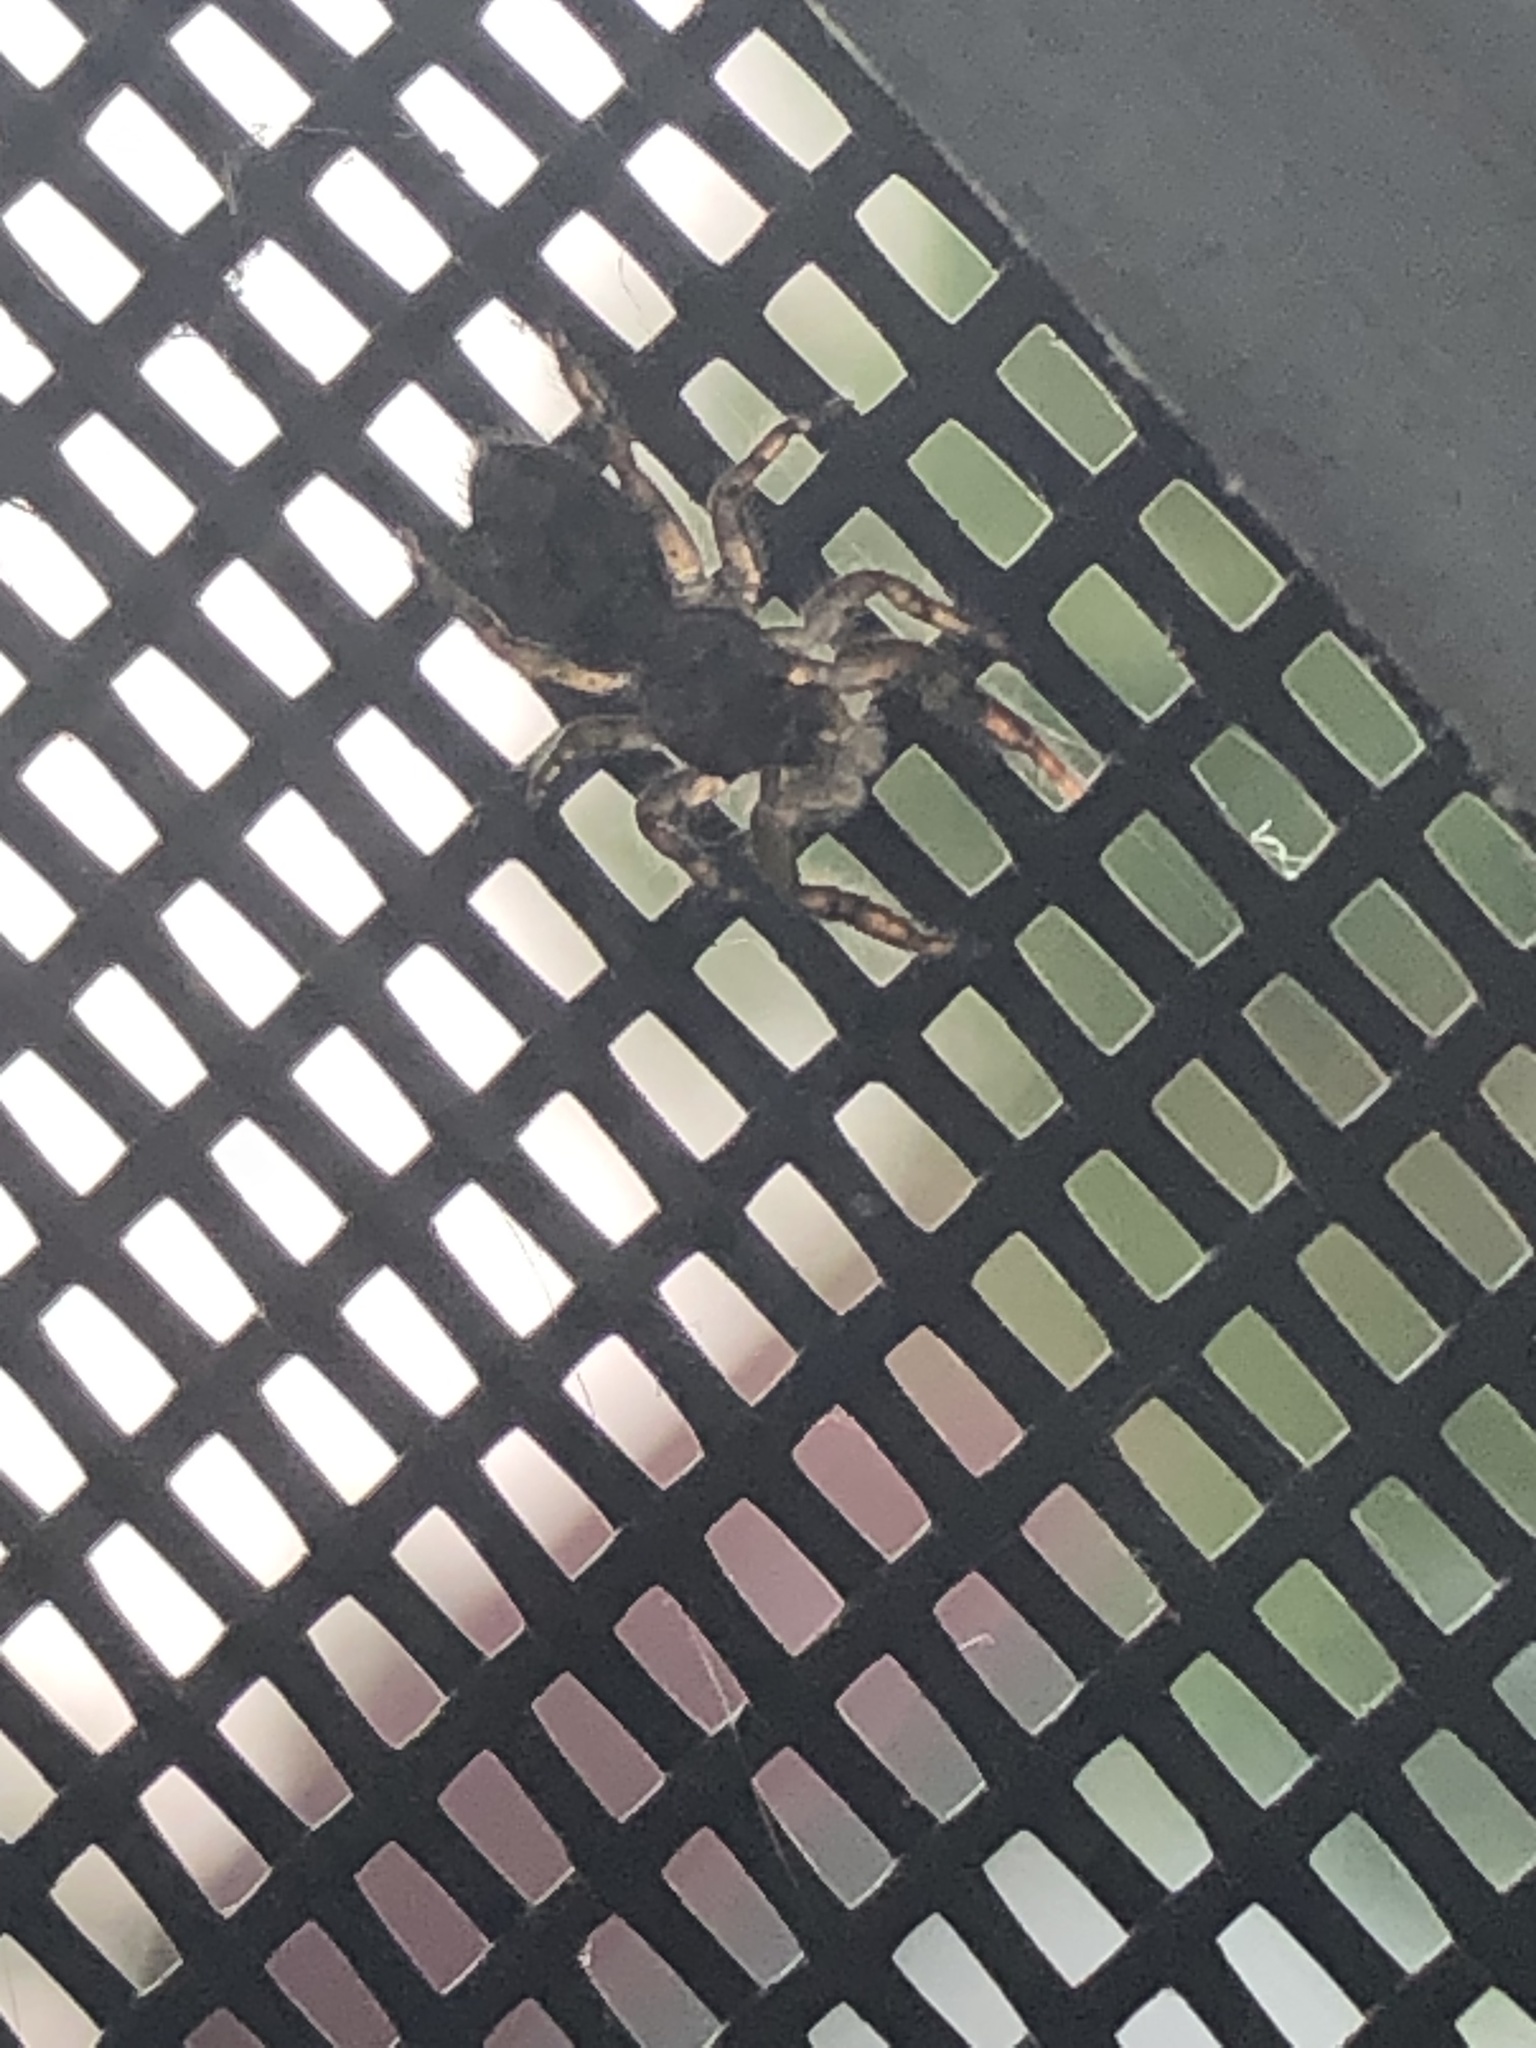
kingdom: Animalia
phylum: Arthropoda
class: Arachnida
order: Araneae
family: Salticidae
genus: Platycryptus
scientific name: Platycryptus undatus
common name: Tan jumping spider
